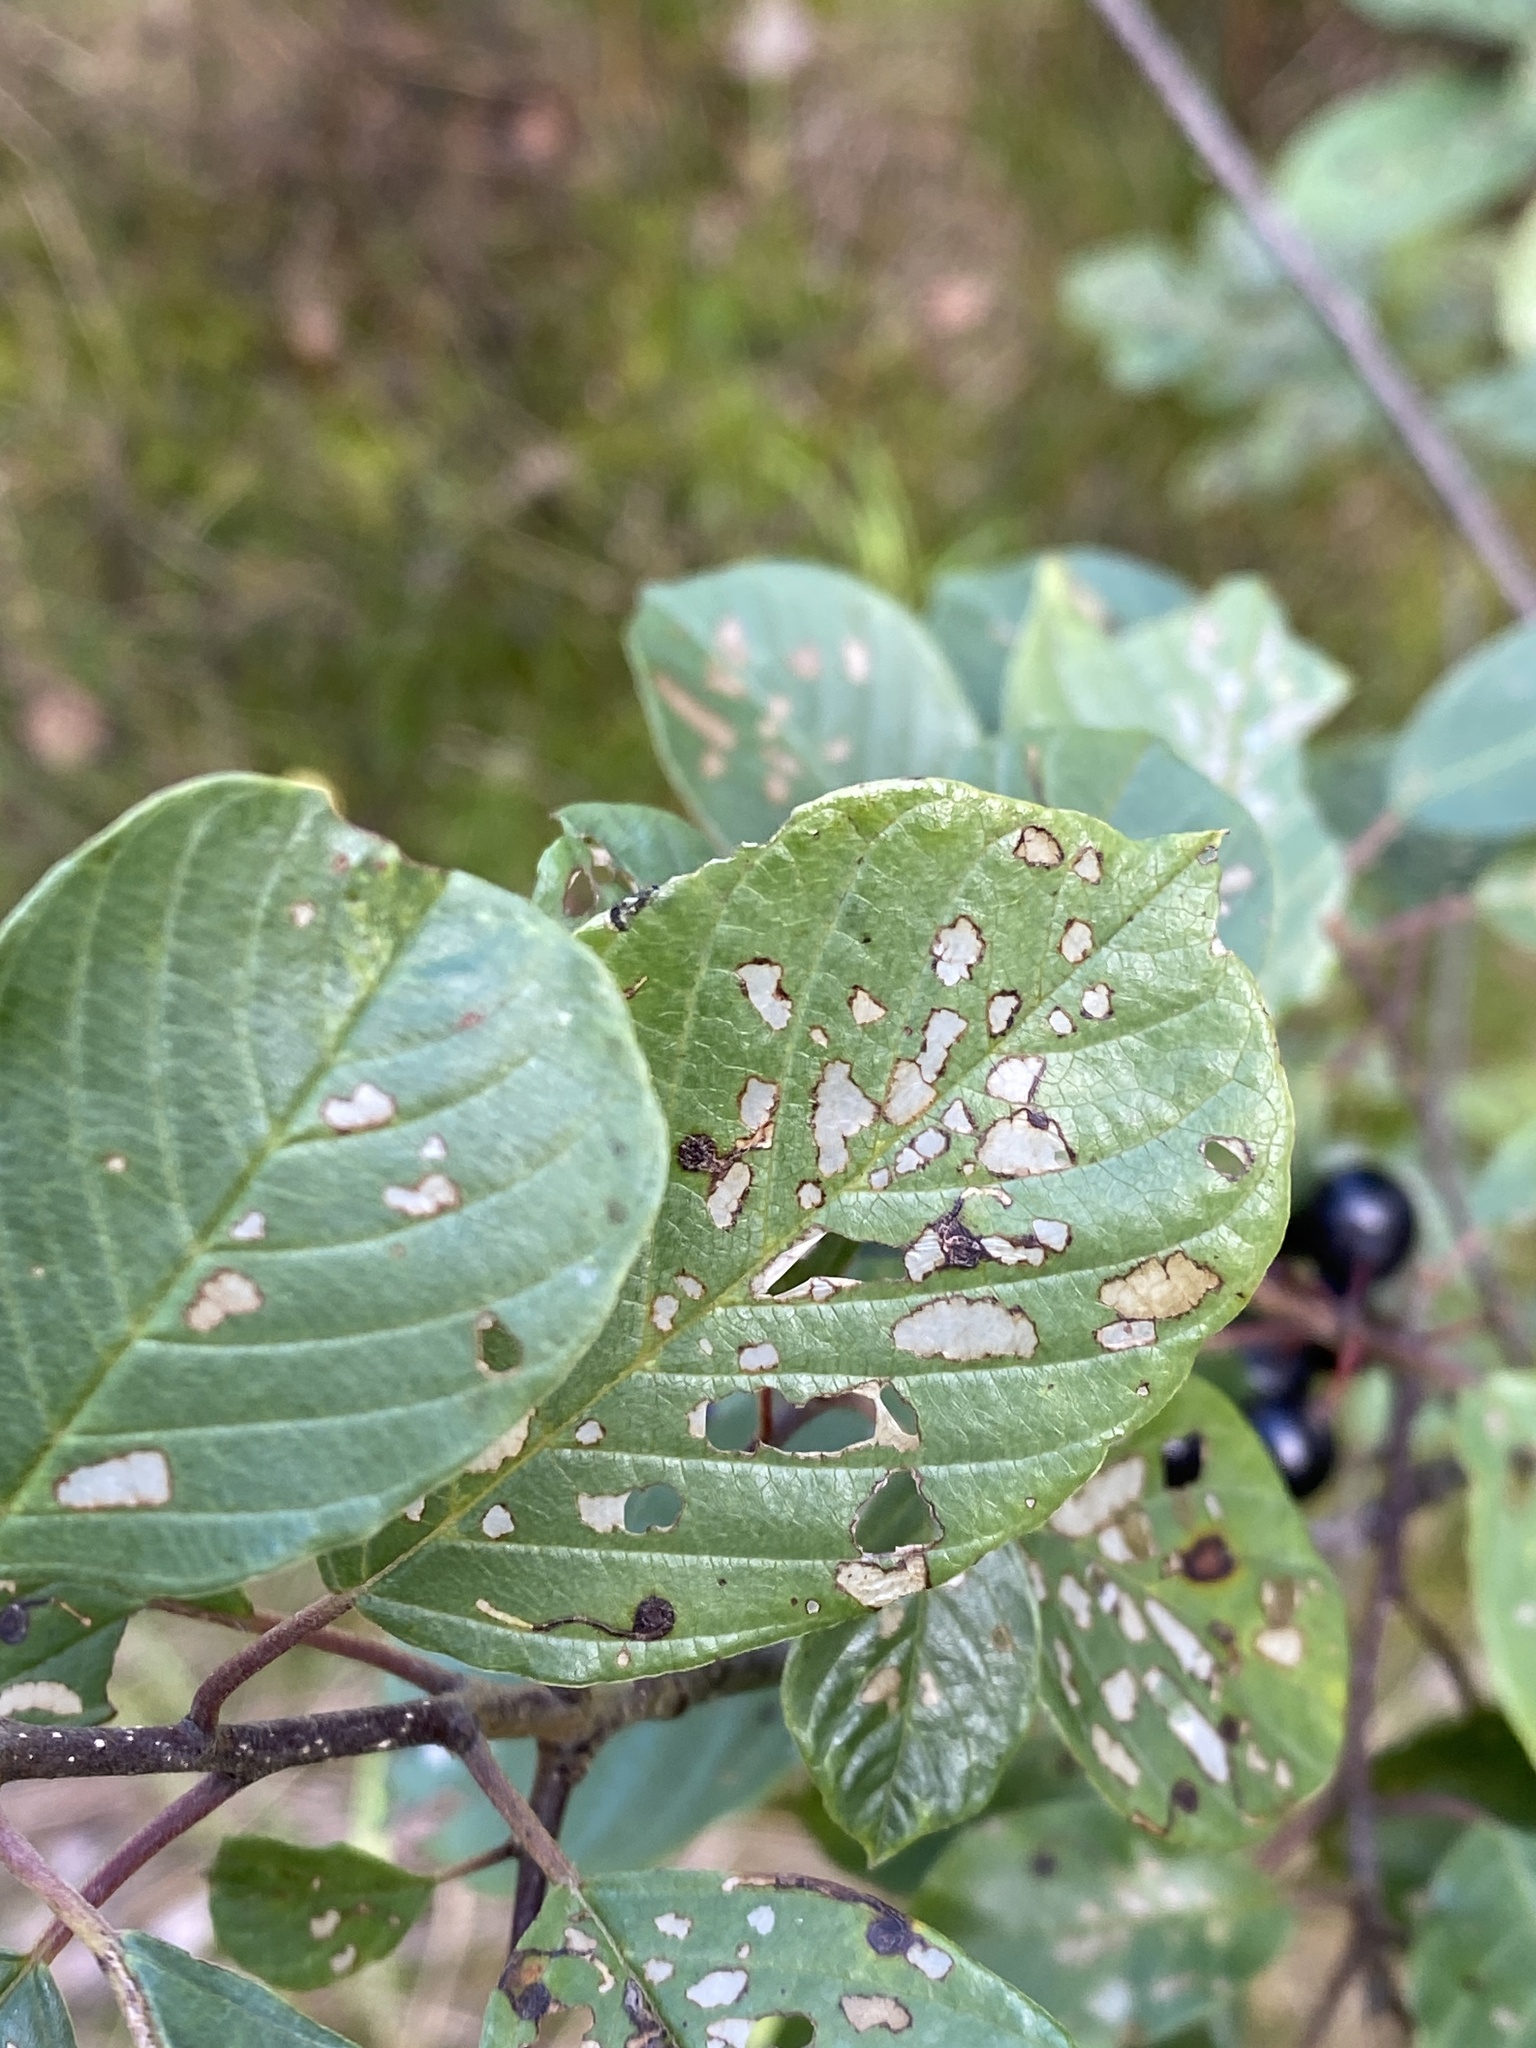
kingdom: Animalia
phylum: Arthropoda
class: Insecta
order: Lepidoptera
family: Bucculatricidae
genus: Bucculatrix
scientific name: Bucculatrix frangutella
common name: Buckthorn bent-wing
